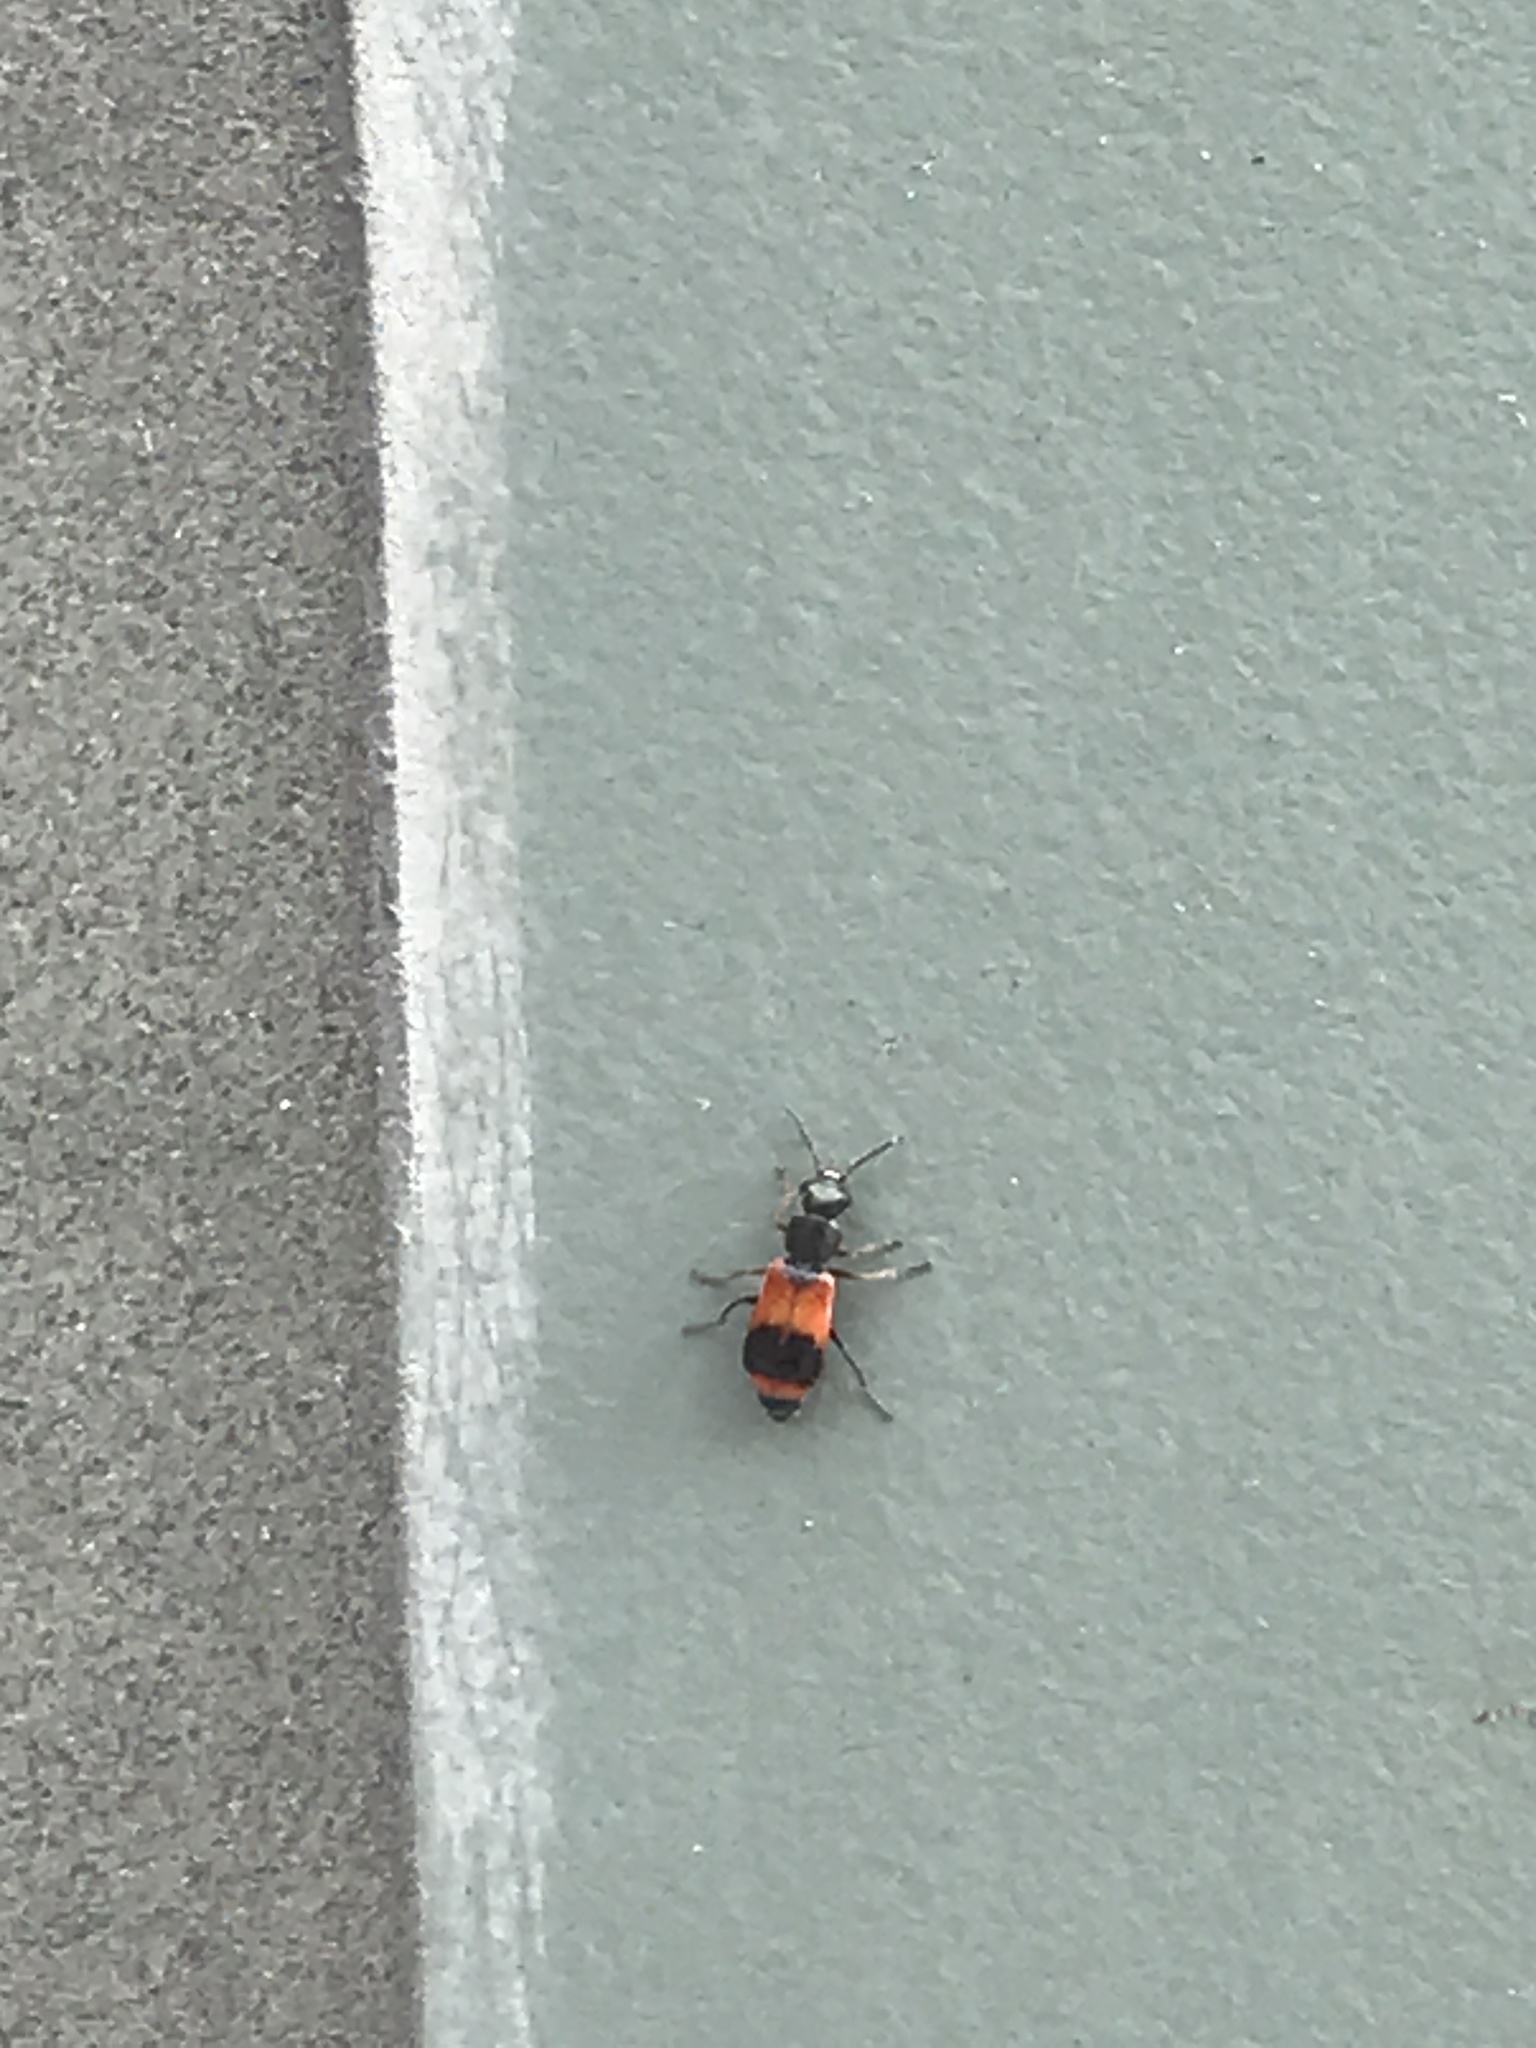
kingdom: Animalia
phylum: Arthropoda
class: Insecta
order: Coleoptera
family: Melyridae
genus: Anthocomus
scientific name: Anthocomus equestris
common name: Black-banded soft-winged flower beetle
